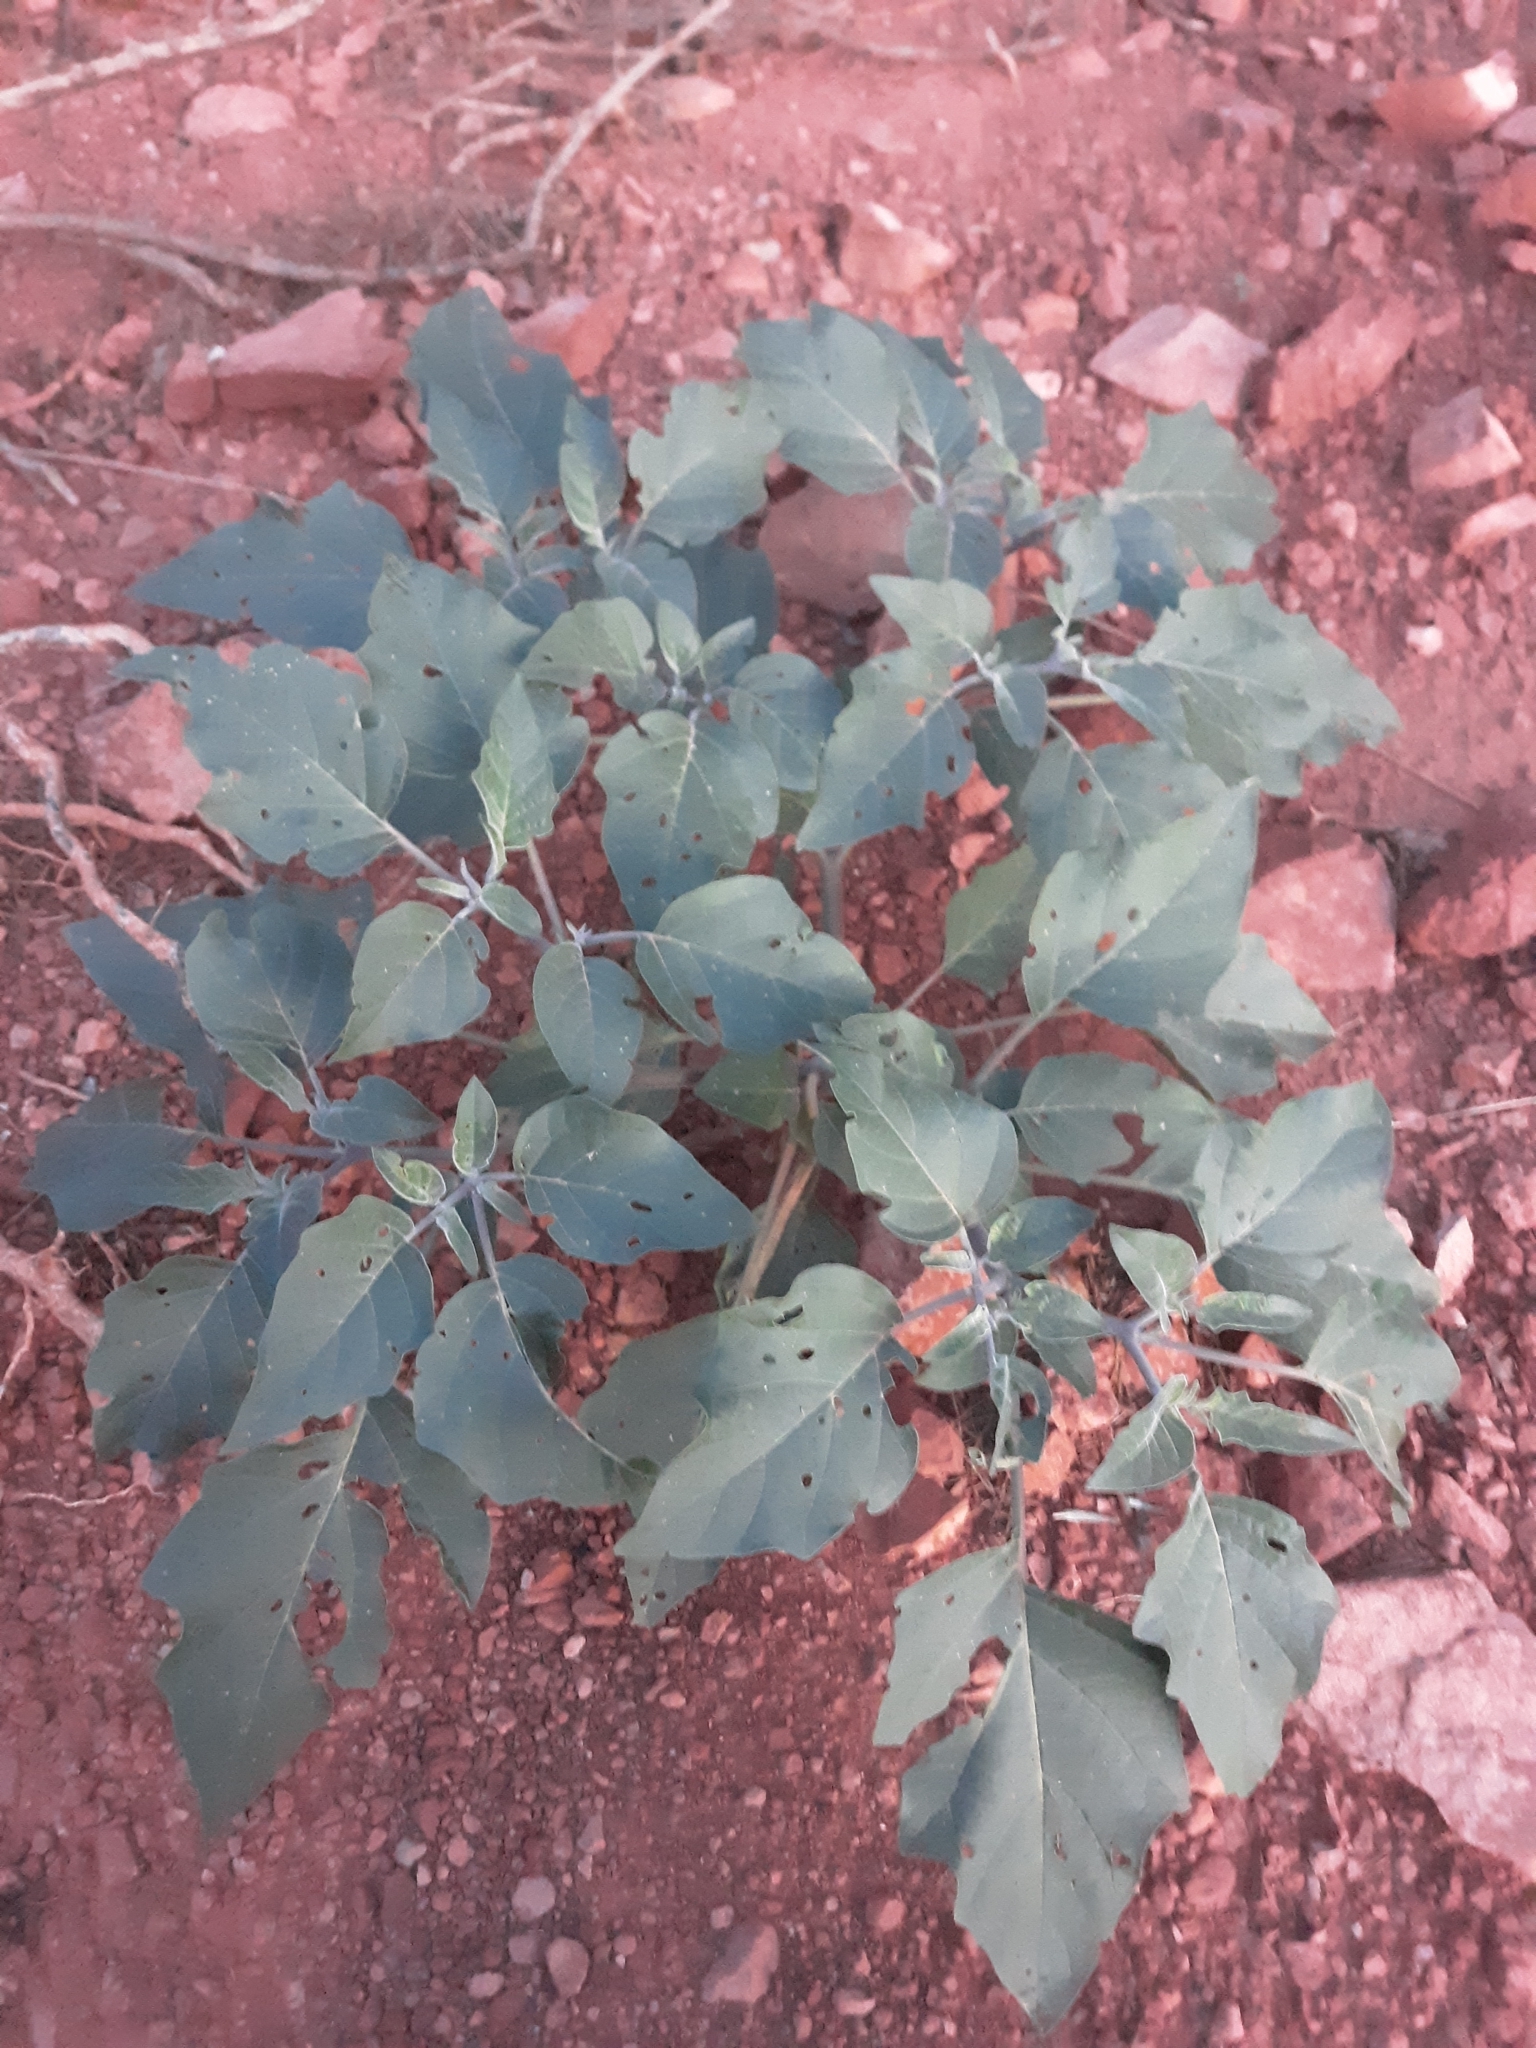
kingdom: Plantae
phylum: Tracheophyta
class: Magnoliopsida
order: Solanales
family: Solanaceae
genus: Datura
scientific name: Datura wrightii
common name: Sacred thorn-apple
